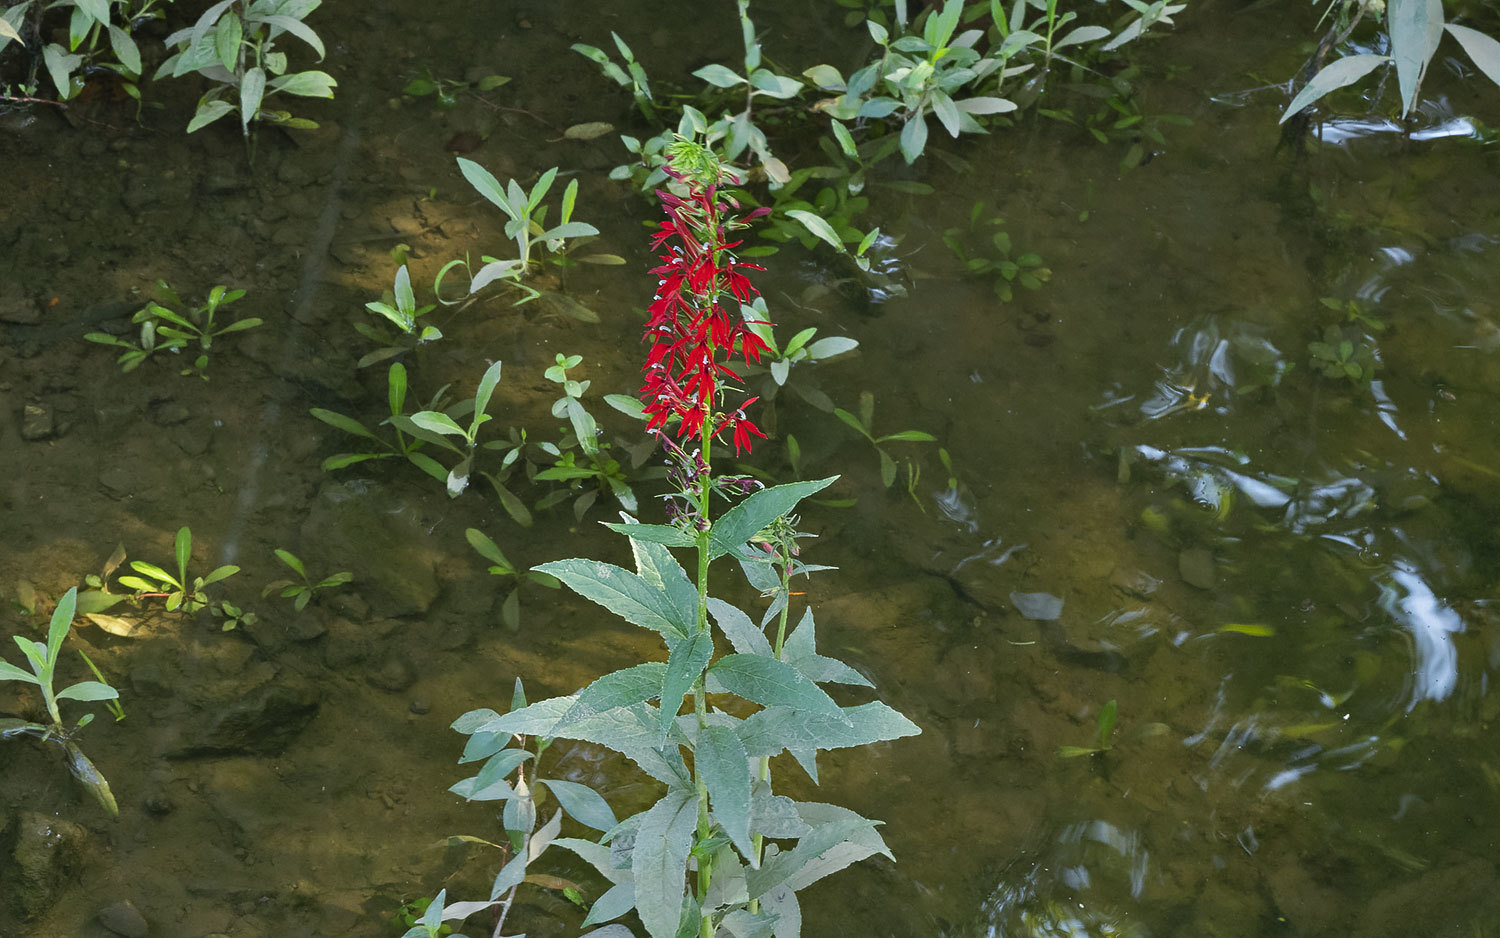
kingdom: Plantae
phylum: Tracheophyta
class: Magnoliopsida
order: Asterales
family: Campanulaceae
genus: Lobelia
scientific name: Lobelia cardinalis
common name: Cardinal flower
